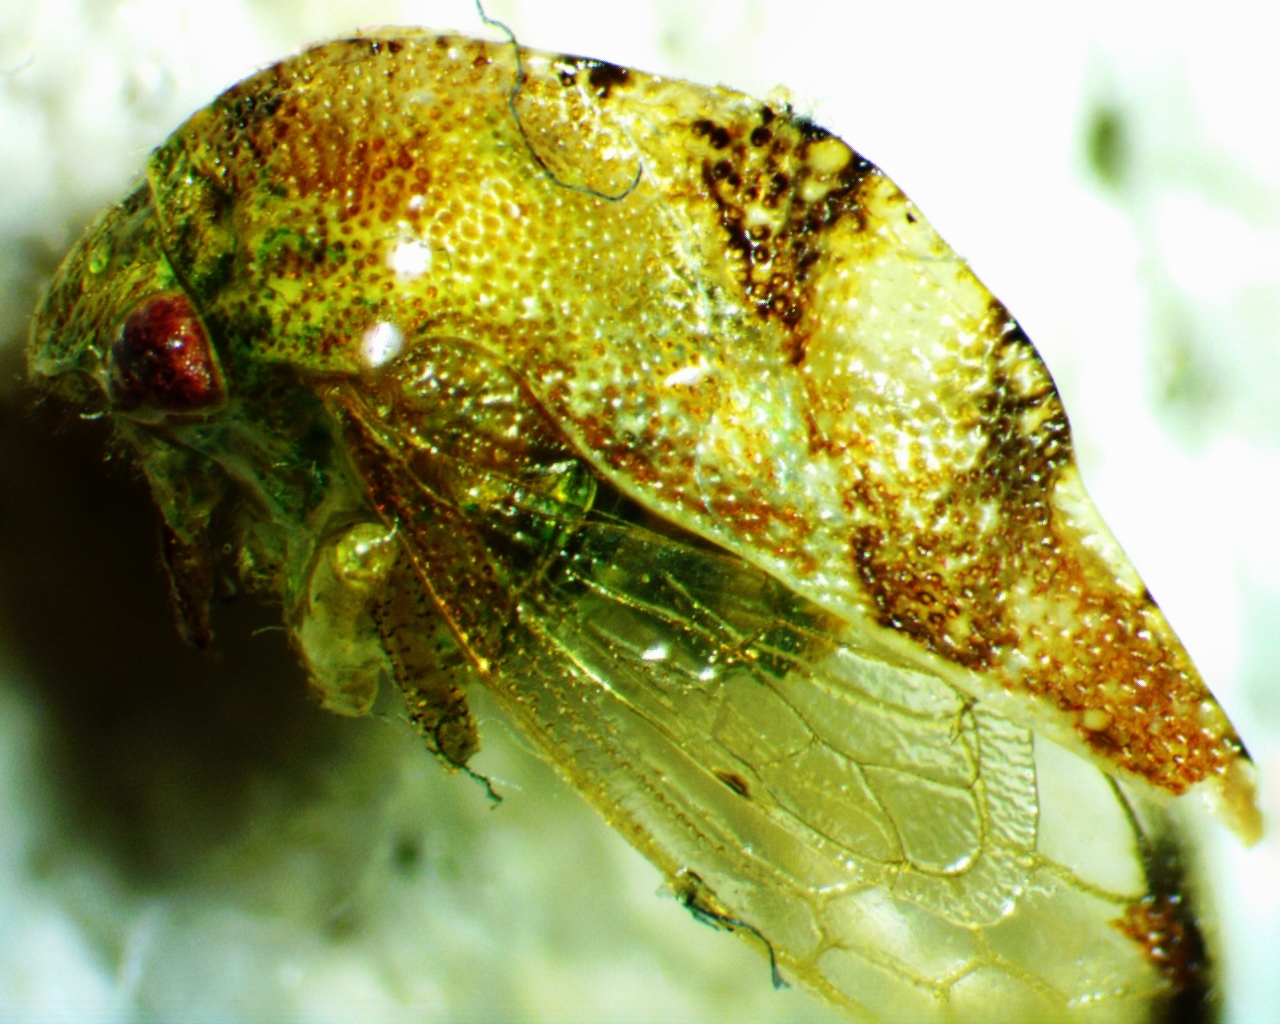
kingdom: Animalia
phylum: Arthropoda
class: Insecta
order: Hemiptera
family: Membracidae
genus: Cyrtolobus
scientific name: Cyrtolobus fenestrata
